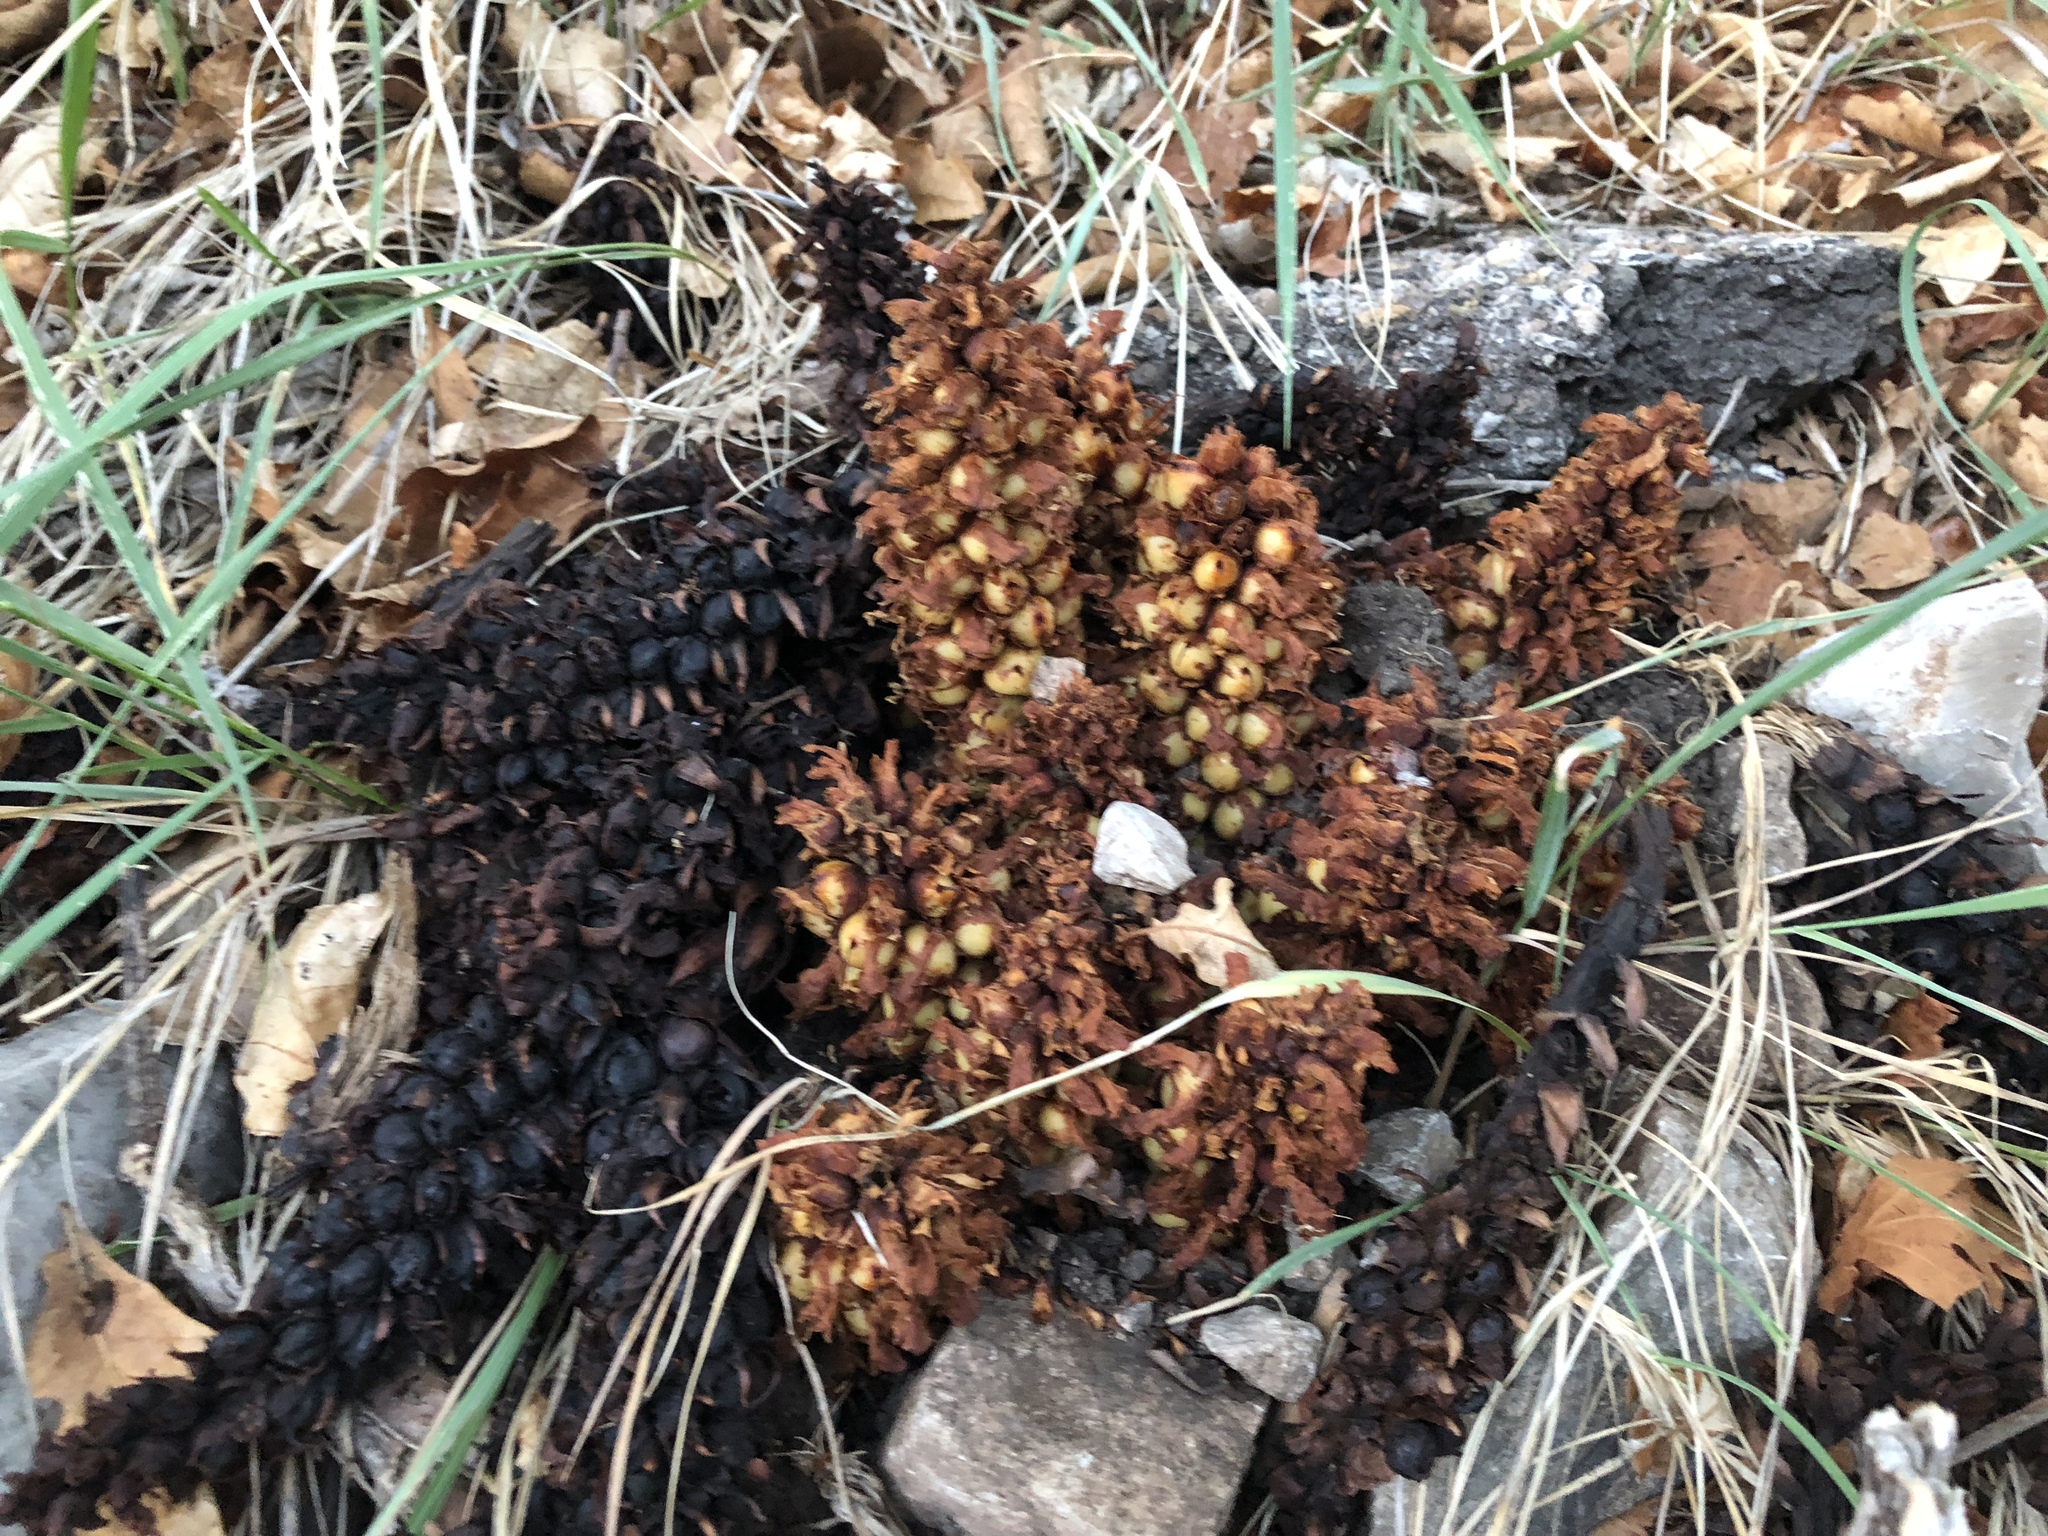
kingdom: Plantae
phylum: Tracheophyta
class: Magnoliopsida
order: Lamiales
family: Orobanchaceae
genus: Conopholis
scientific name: Conopholis alpina
